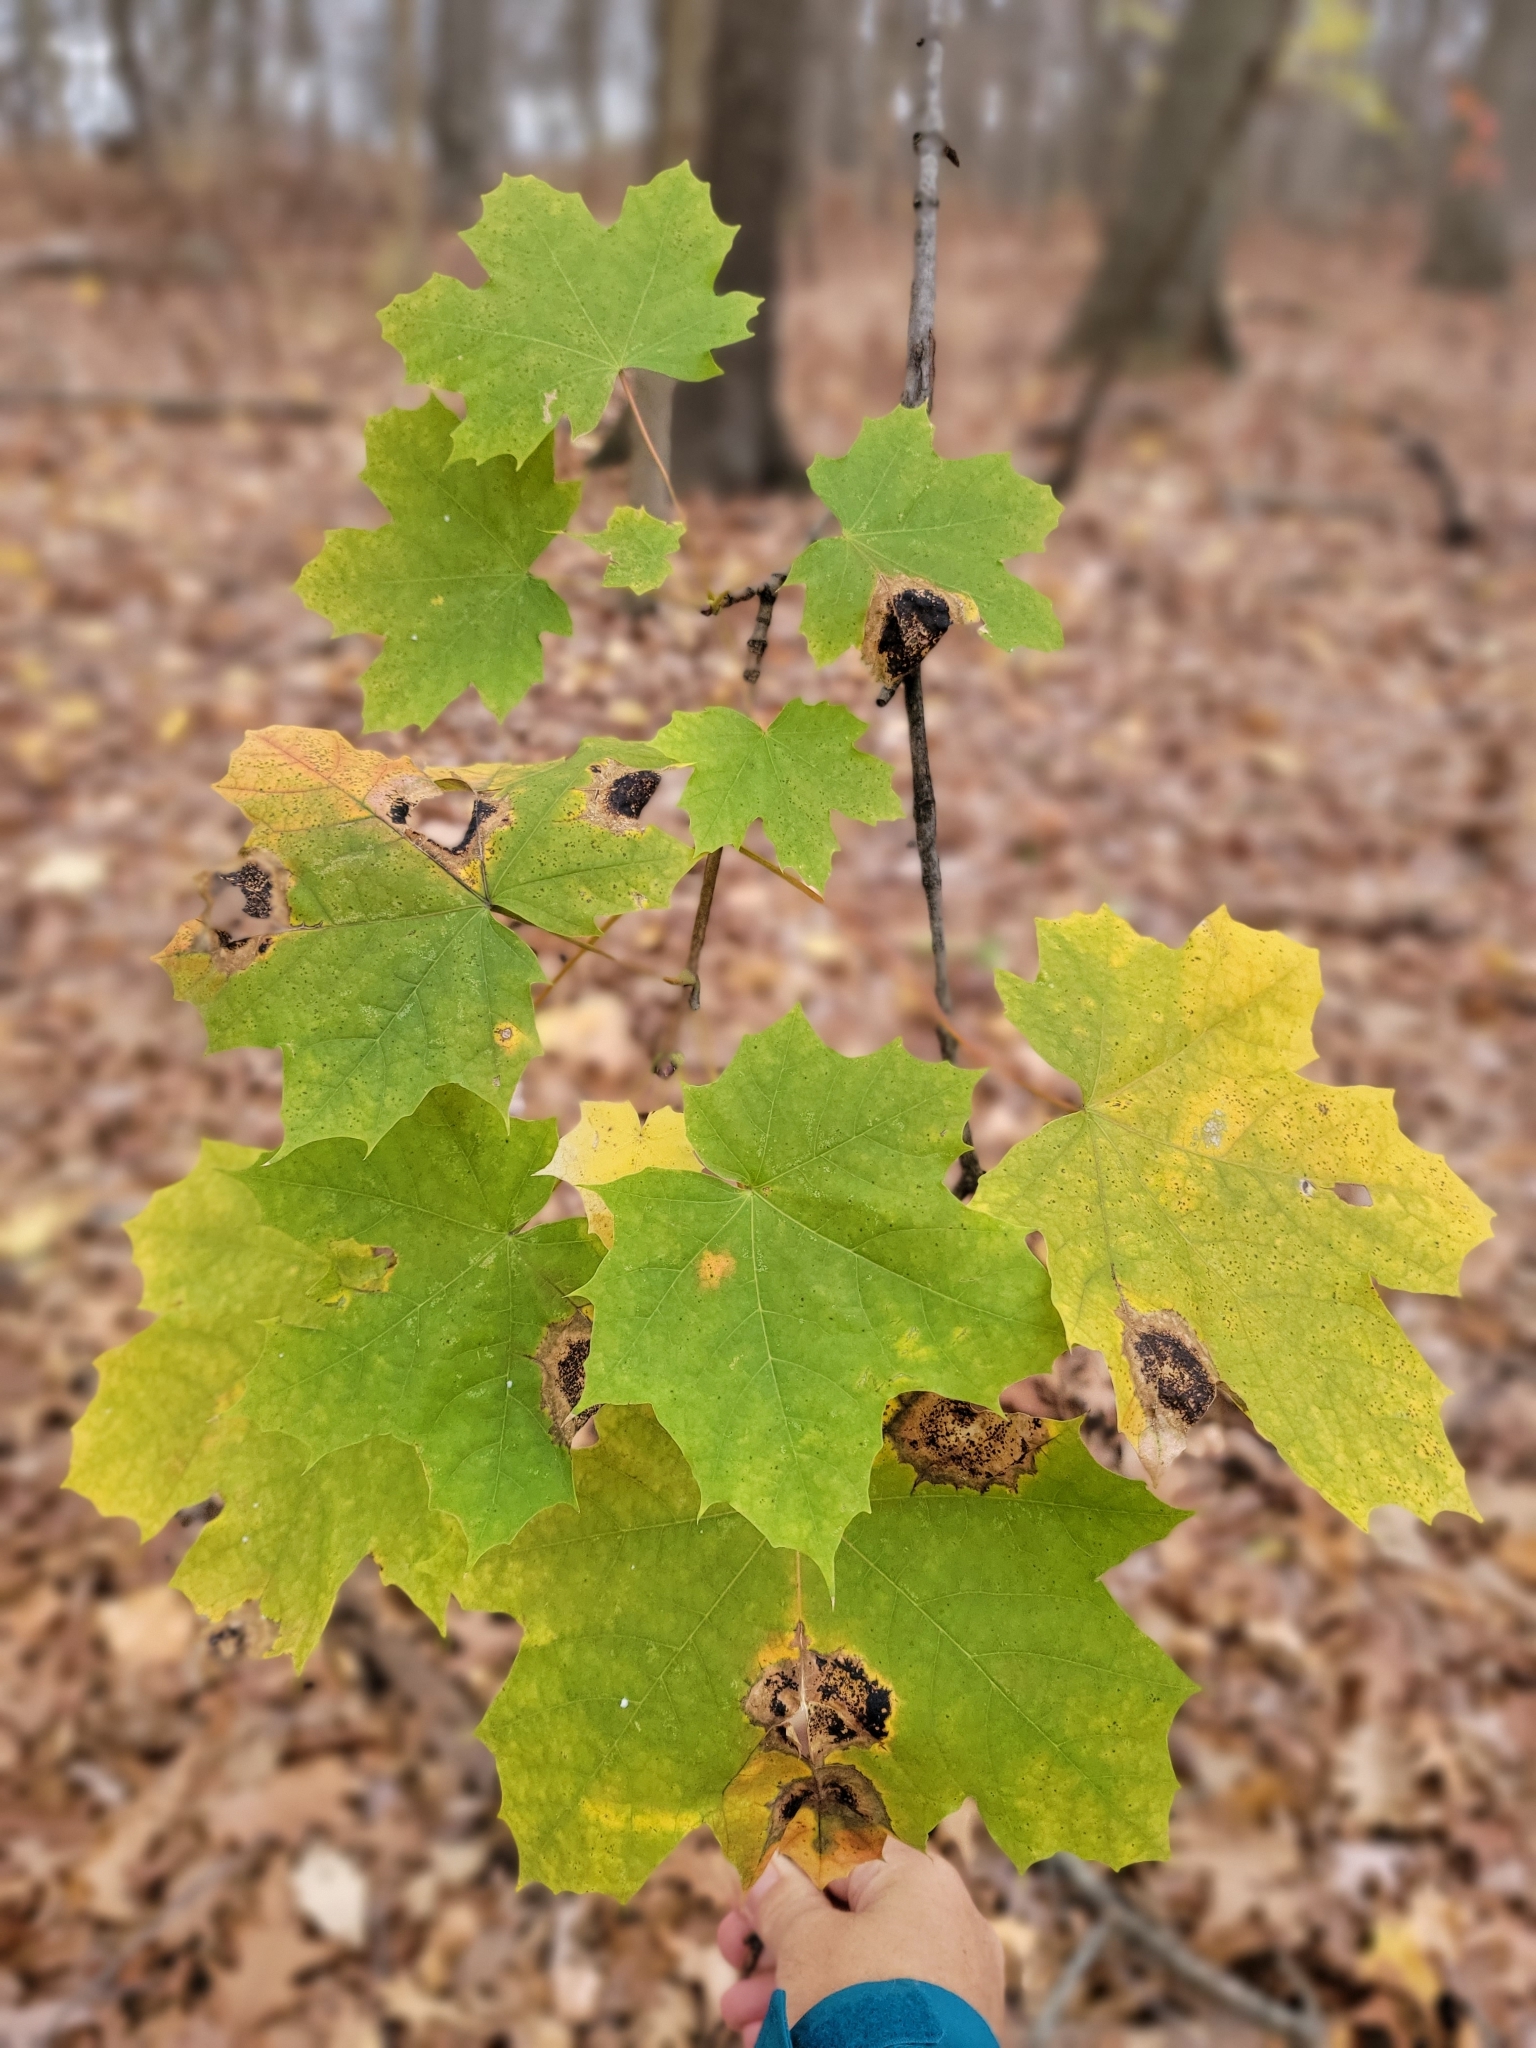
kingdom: Plantae
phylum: Tracheophyta
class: Magnoliopsida
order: Sapindales
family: Sapindaceae
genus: Acer
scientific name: Acer saccharum
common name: Sugar maple
